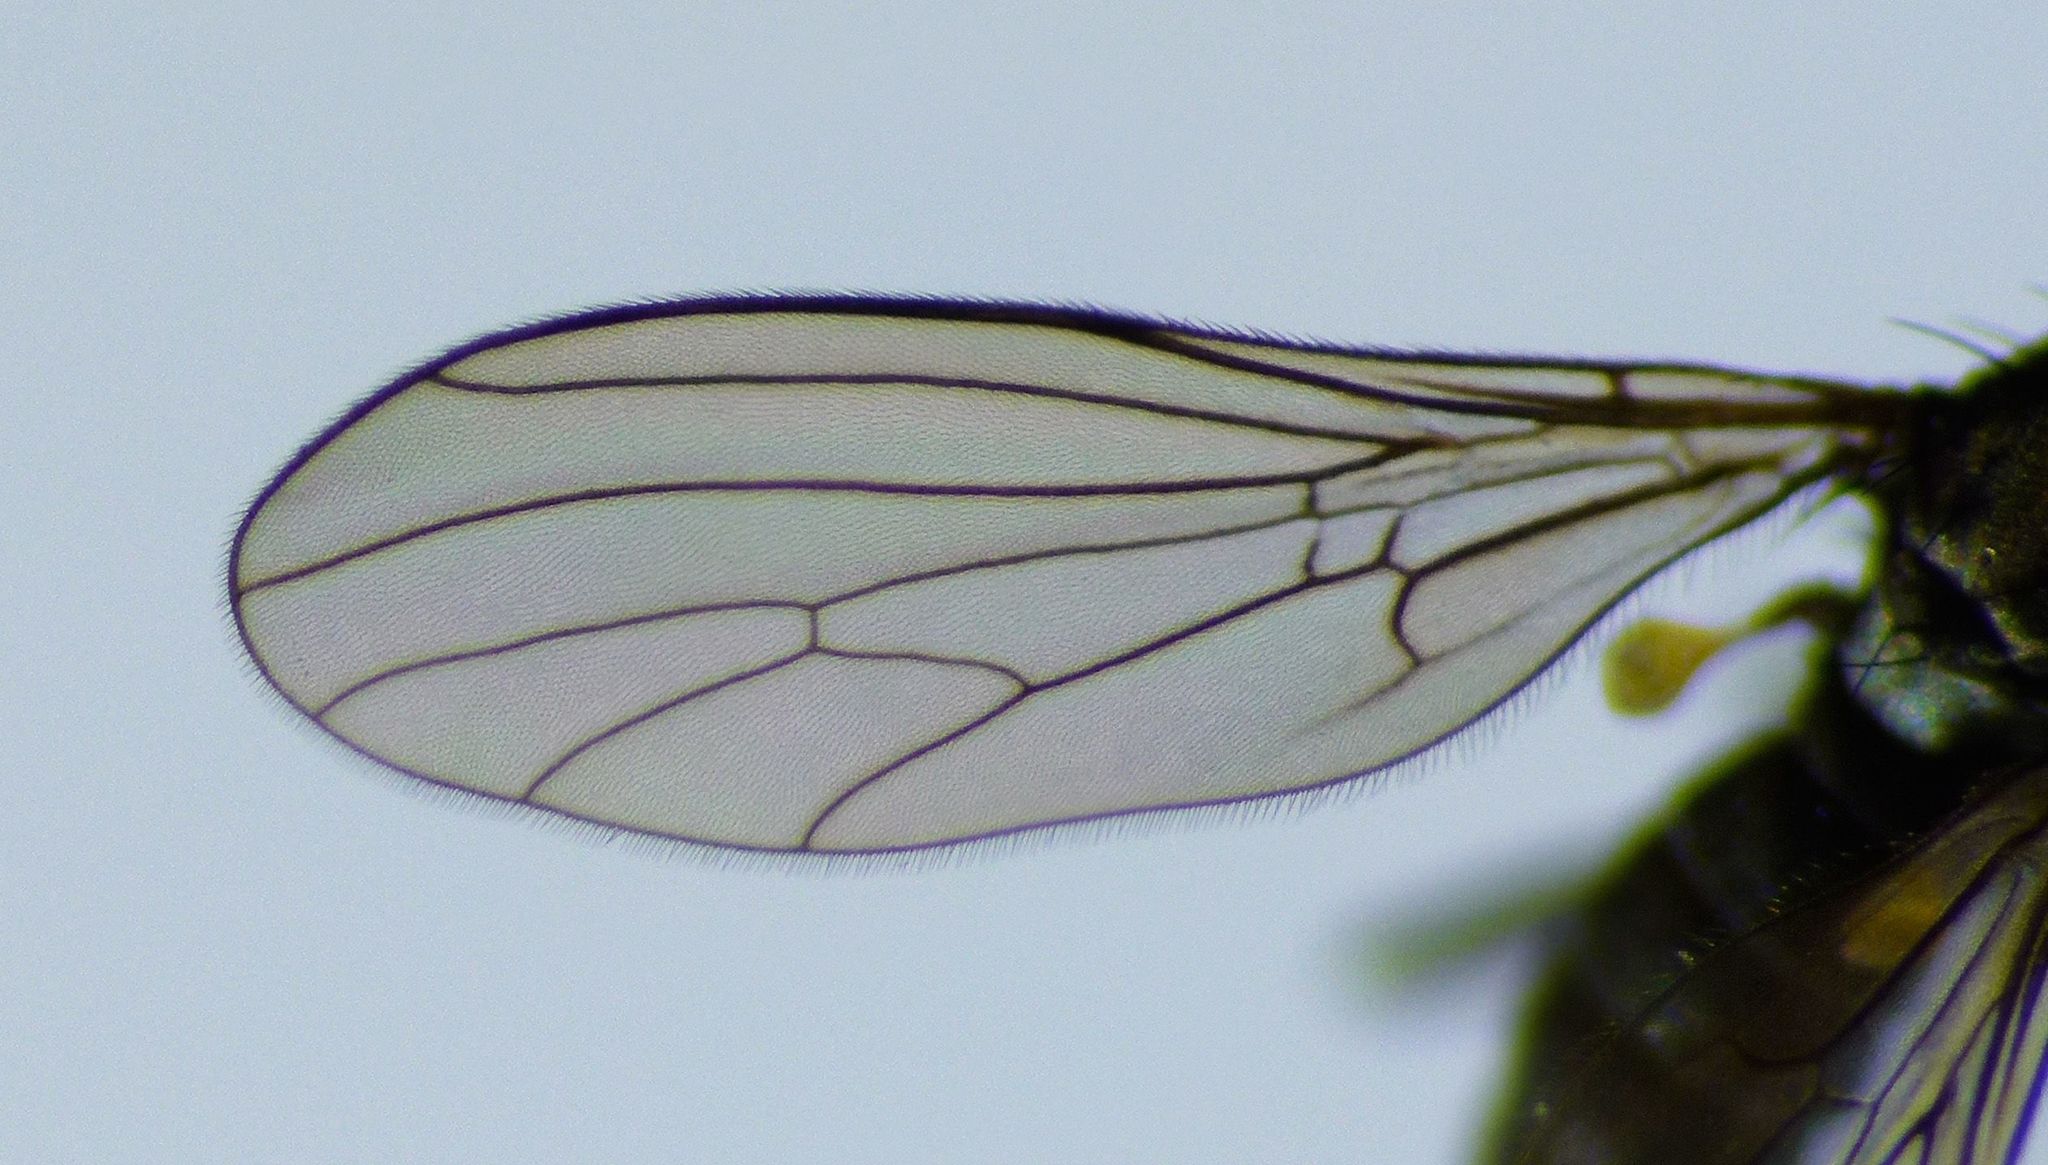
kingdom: Animalia
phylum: Arthropoda
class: Insecta
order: Diptera
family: Empididae
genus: Chelipoda
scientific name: Chelipoda inconspicua
